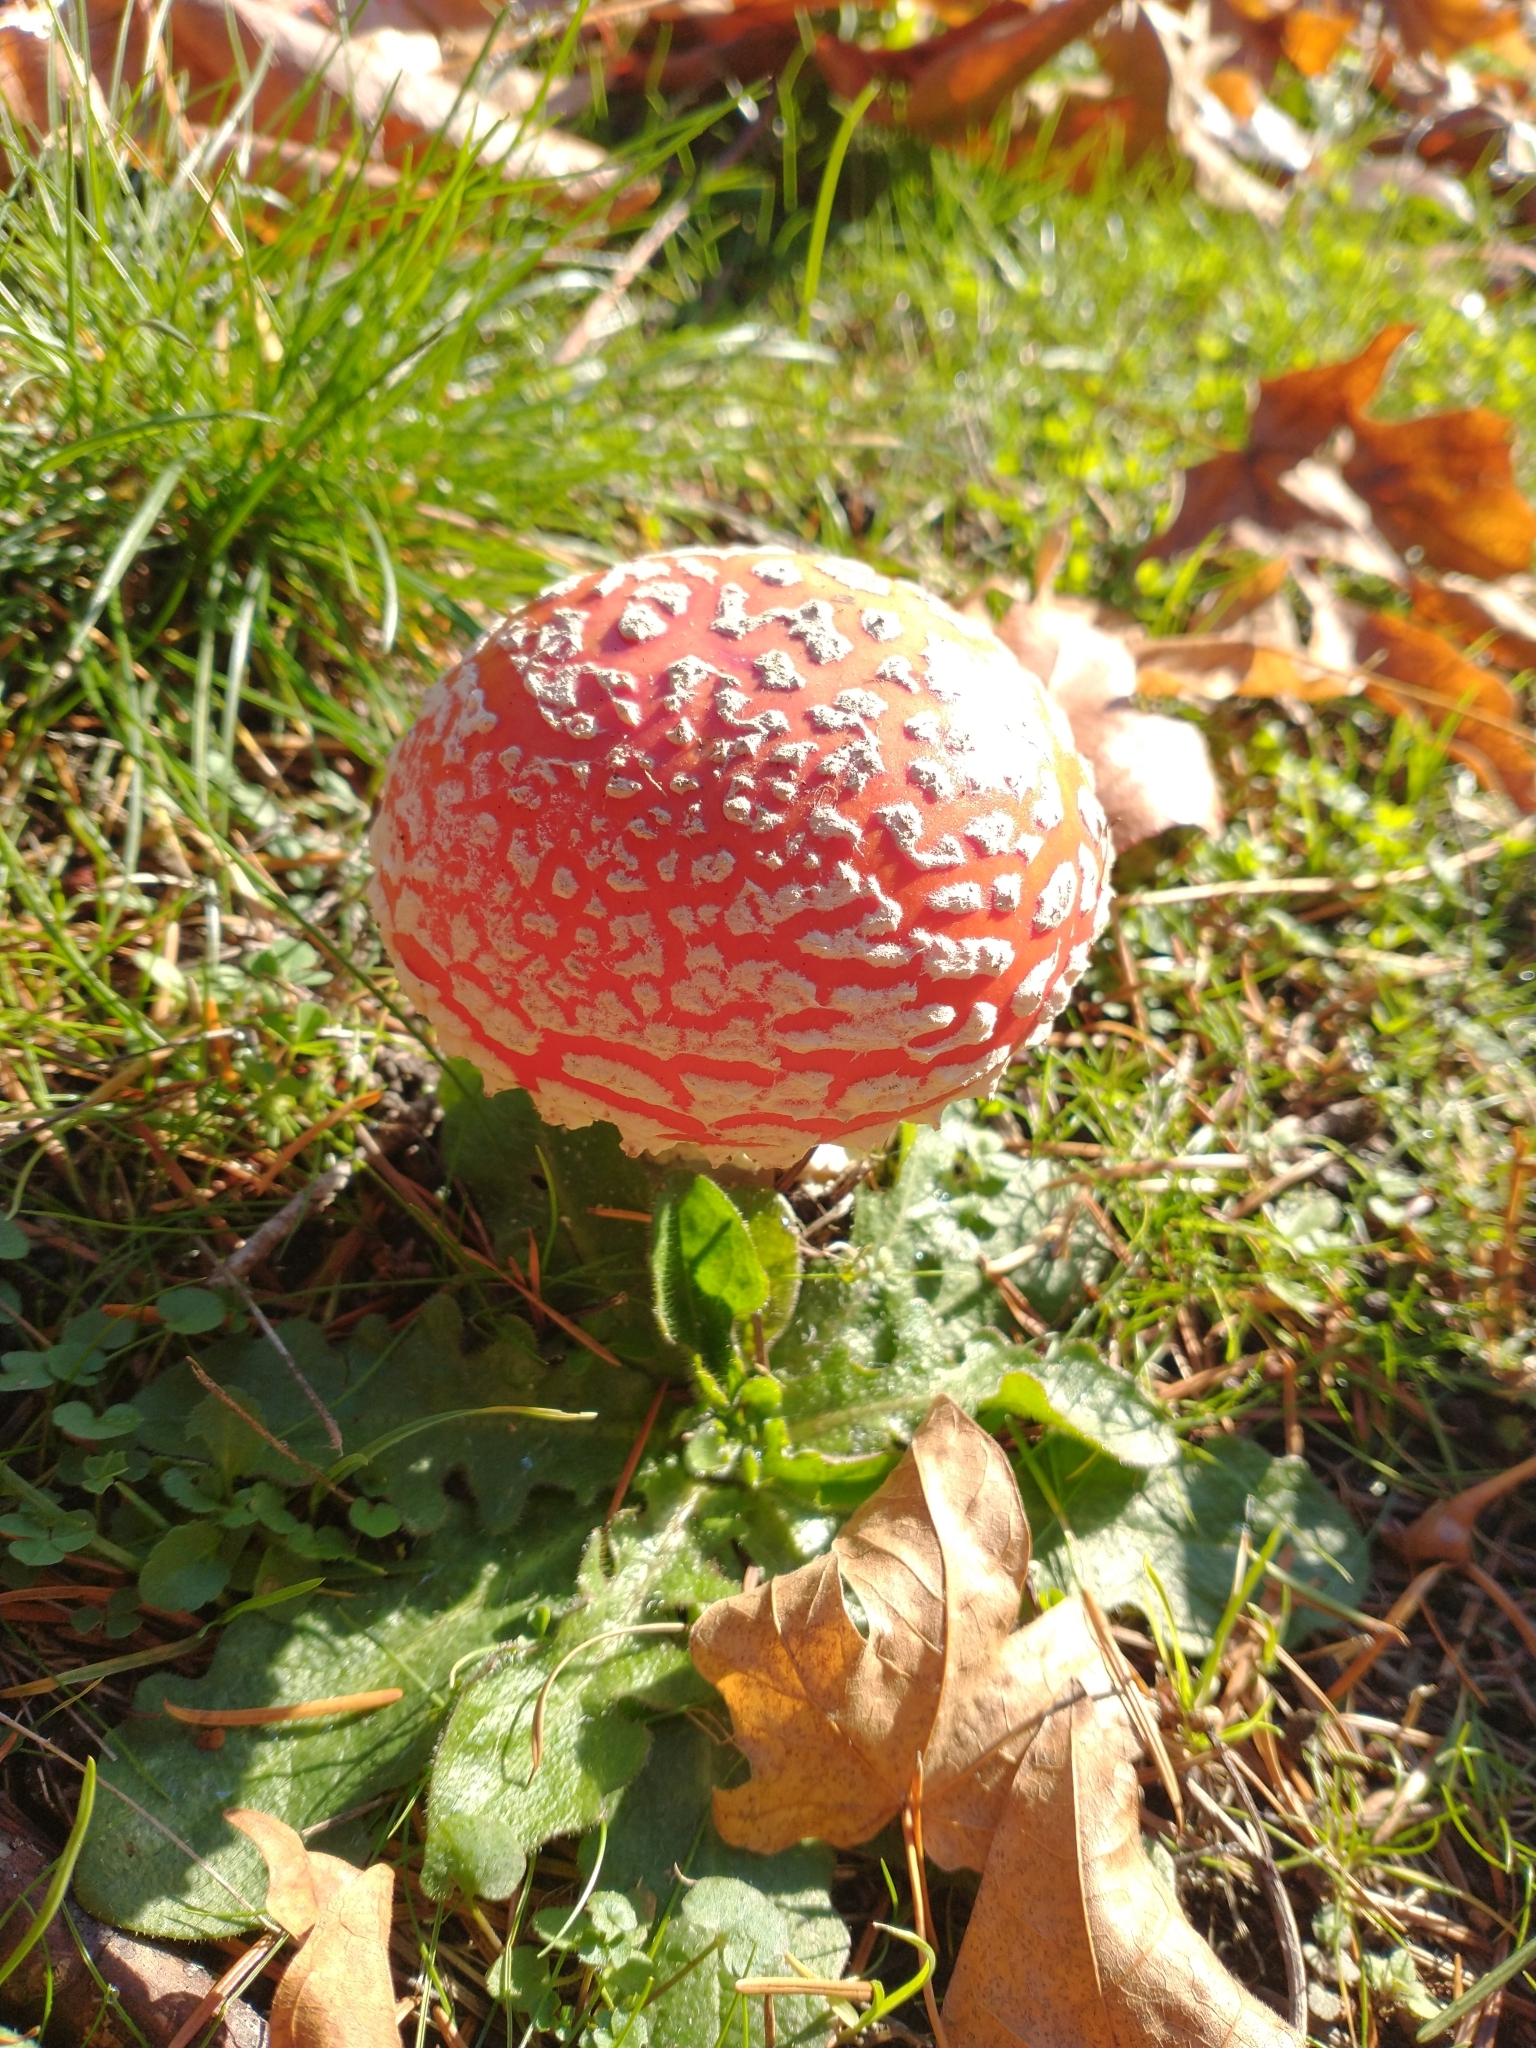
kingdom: Fungi
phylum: Basidiomycota
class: Agaricomycetes
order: Agaricales
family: Amanitaceae
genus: Amanita
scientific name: Amanita muscaria
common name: Fly agaric
